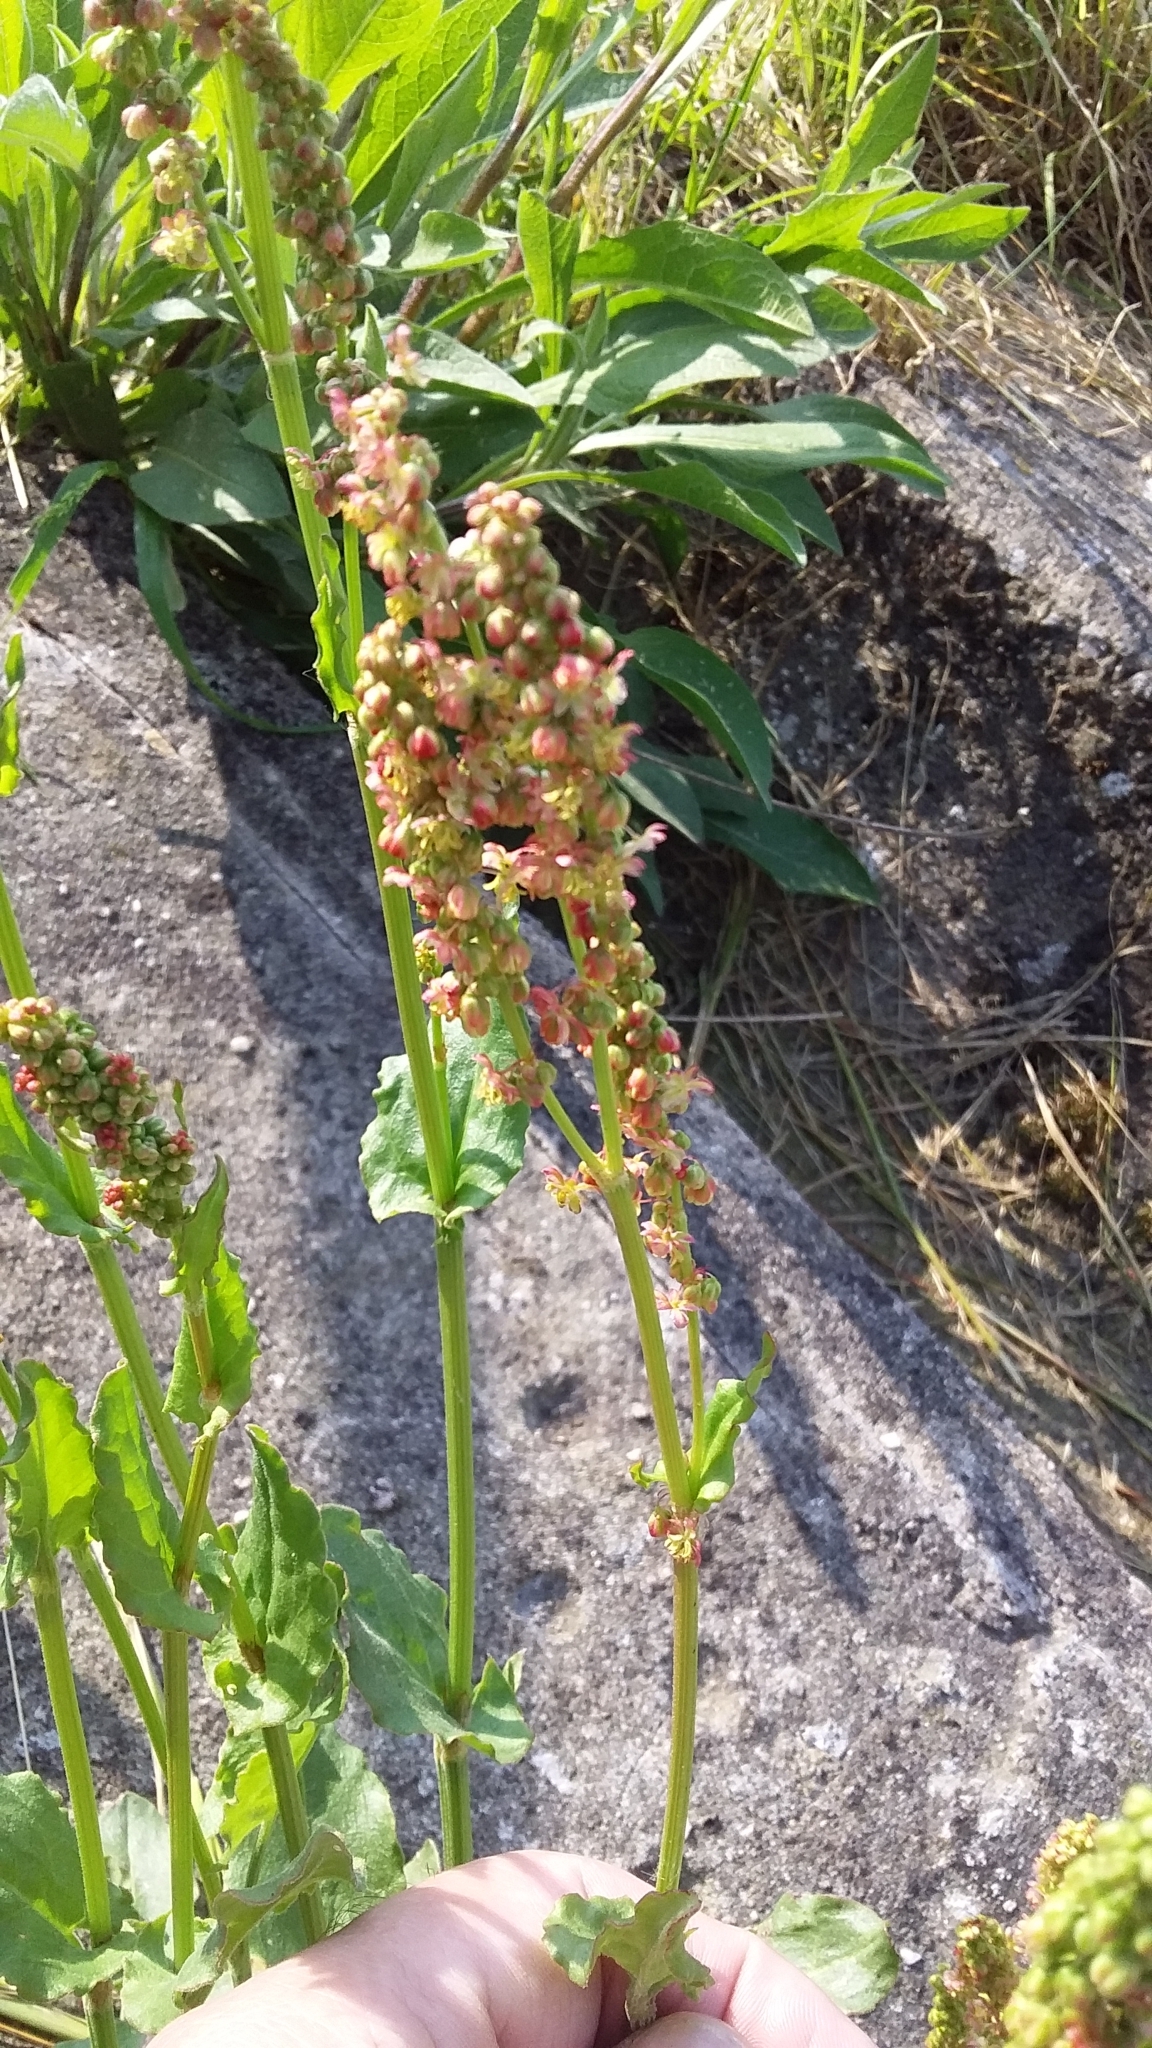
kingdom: Plantae
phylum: Tracheophyta
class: Magnoliopsida
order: Caryophyllales
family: Polygonaceae
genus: Rumex
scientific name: Rumex acetosa
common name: Garden sorrel
